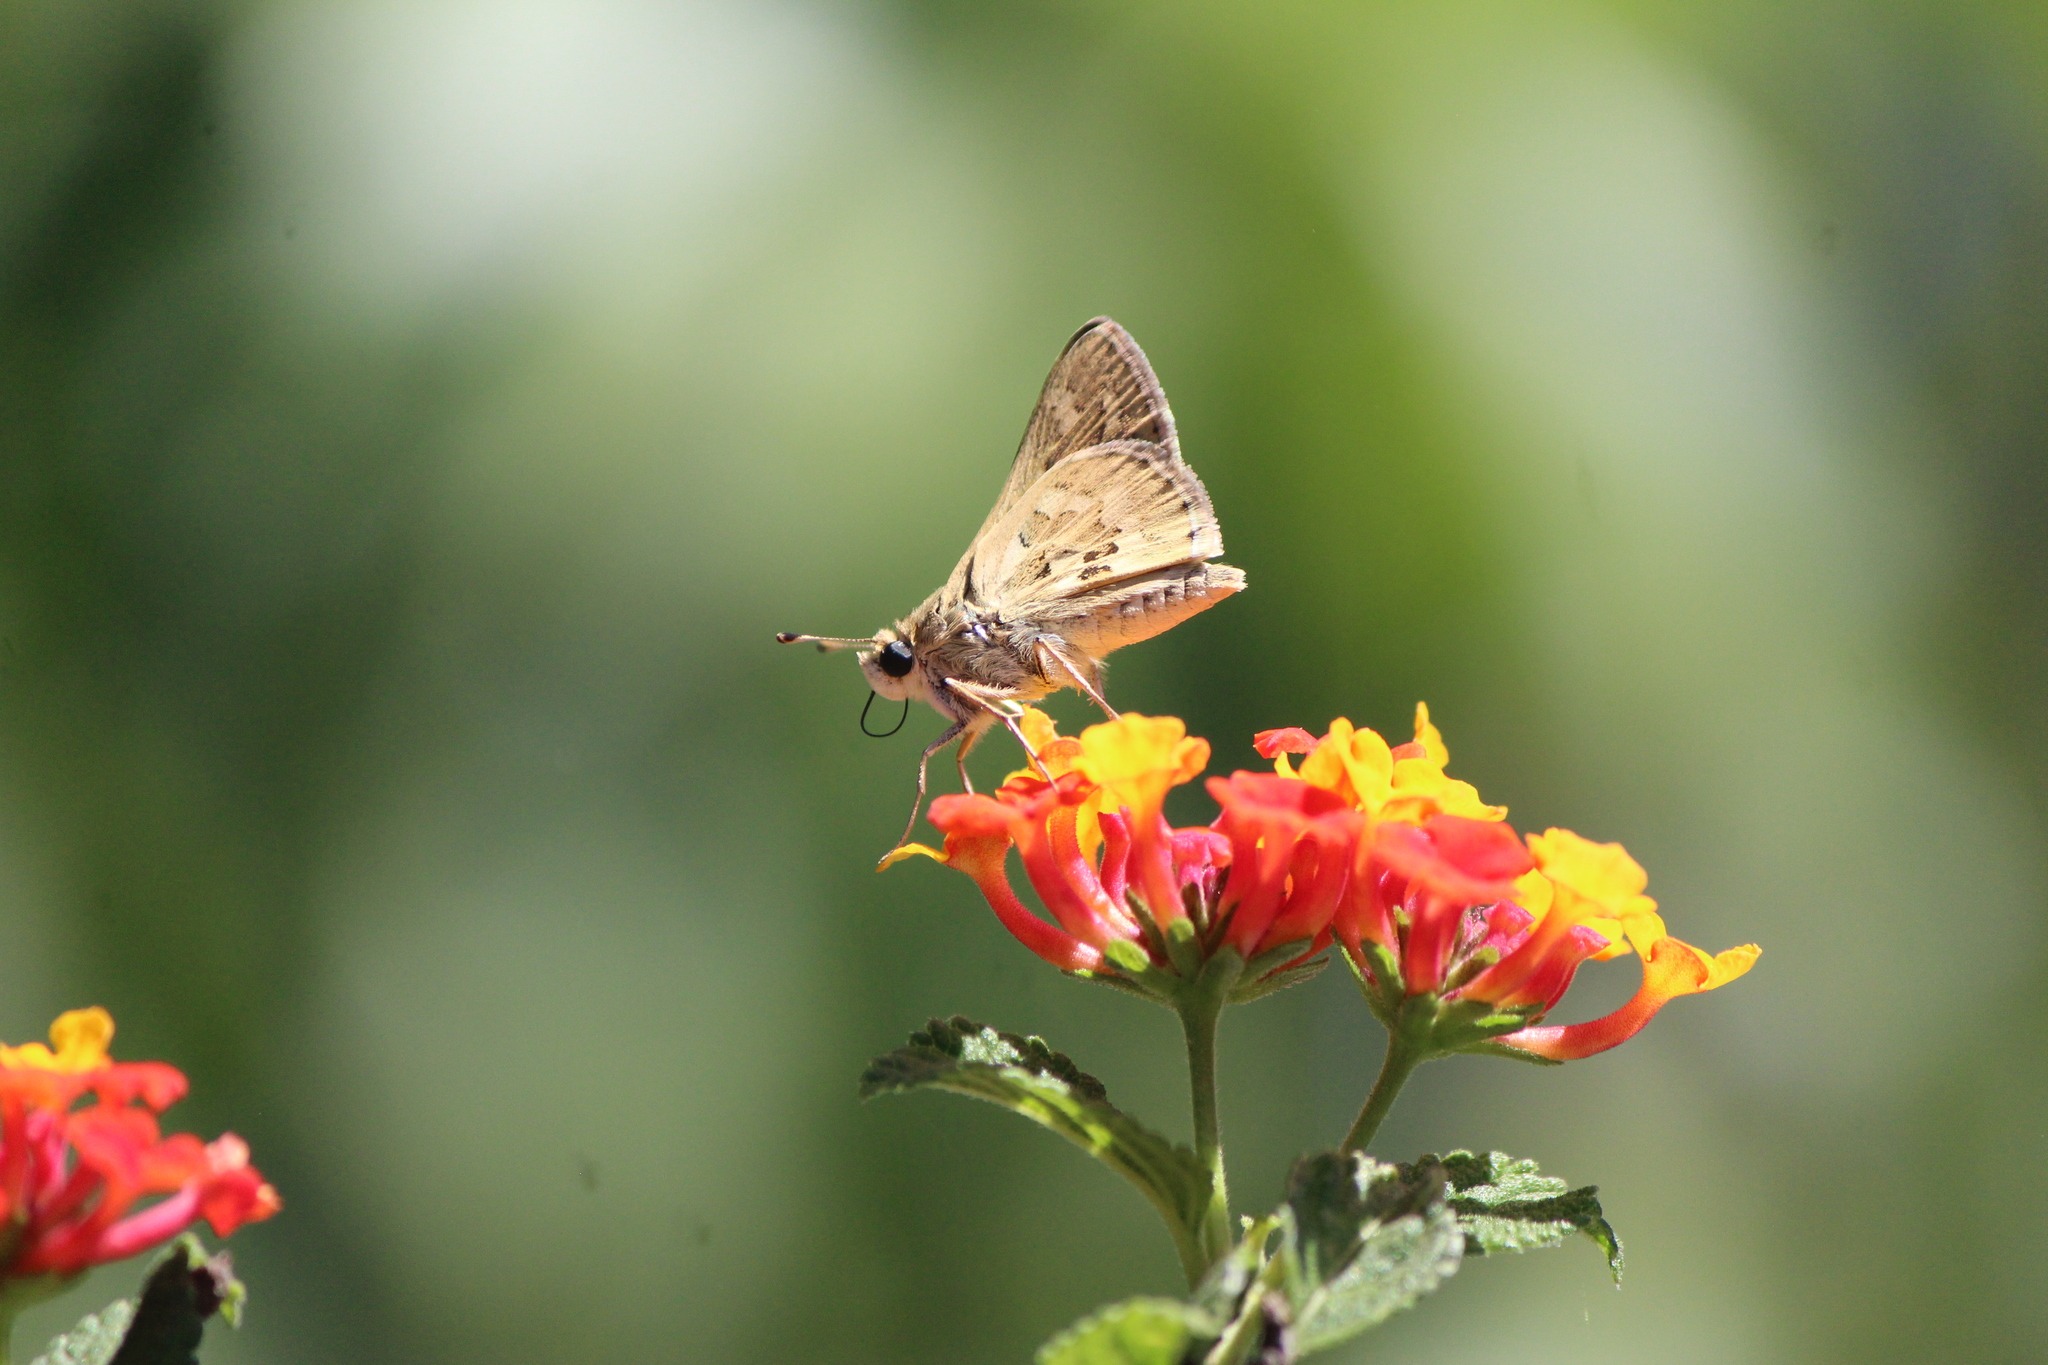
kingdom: Animalia
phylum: Arthropoda
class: Insecta
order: Lepidoptera
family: Hesperiidae
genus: Yvretta
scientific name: Yvretta carus
